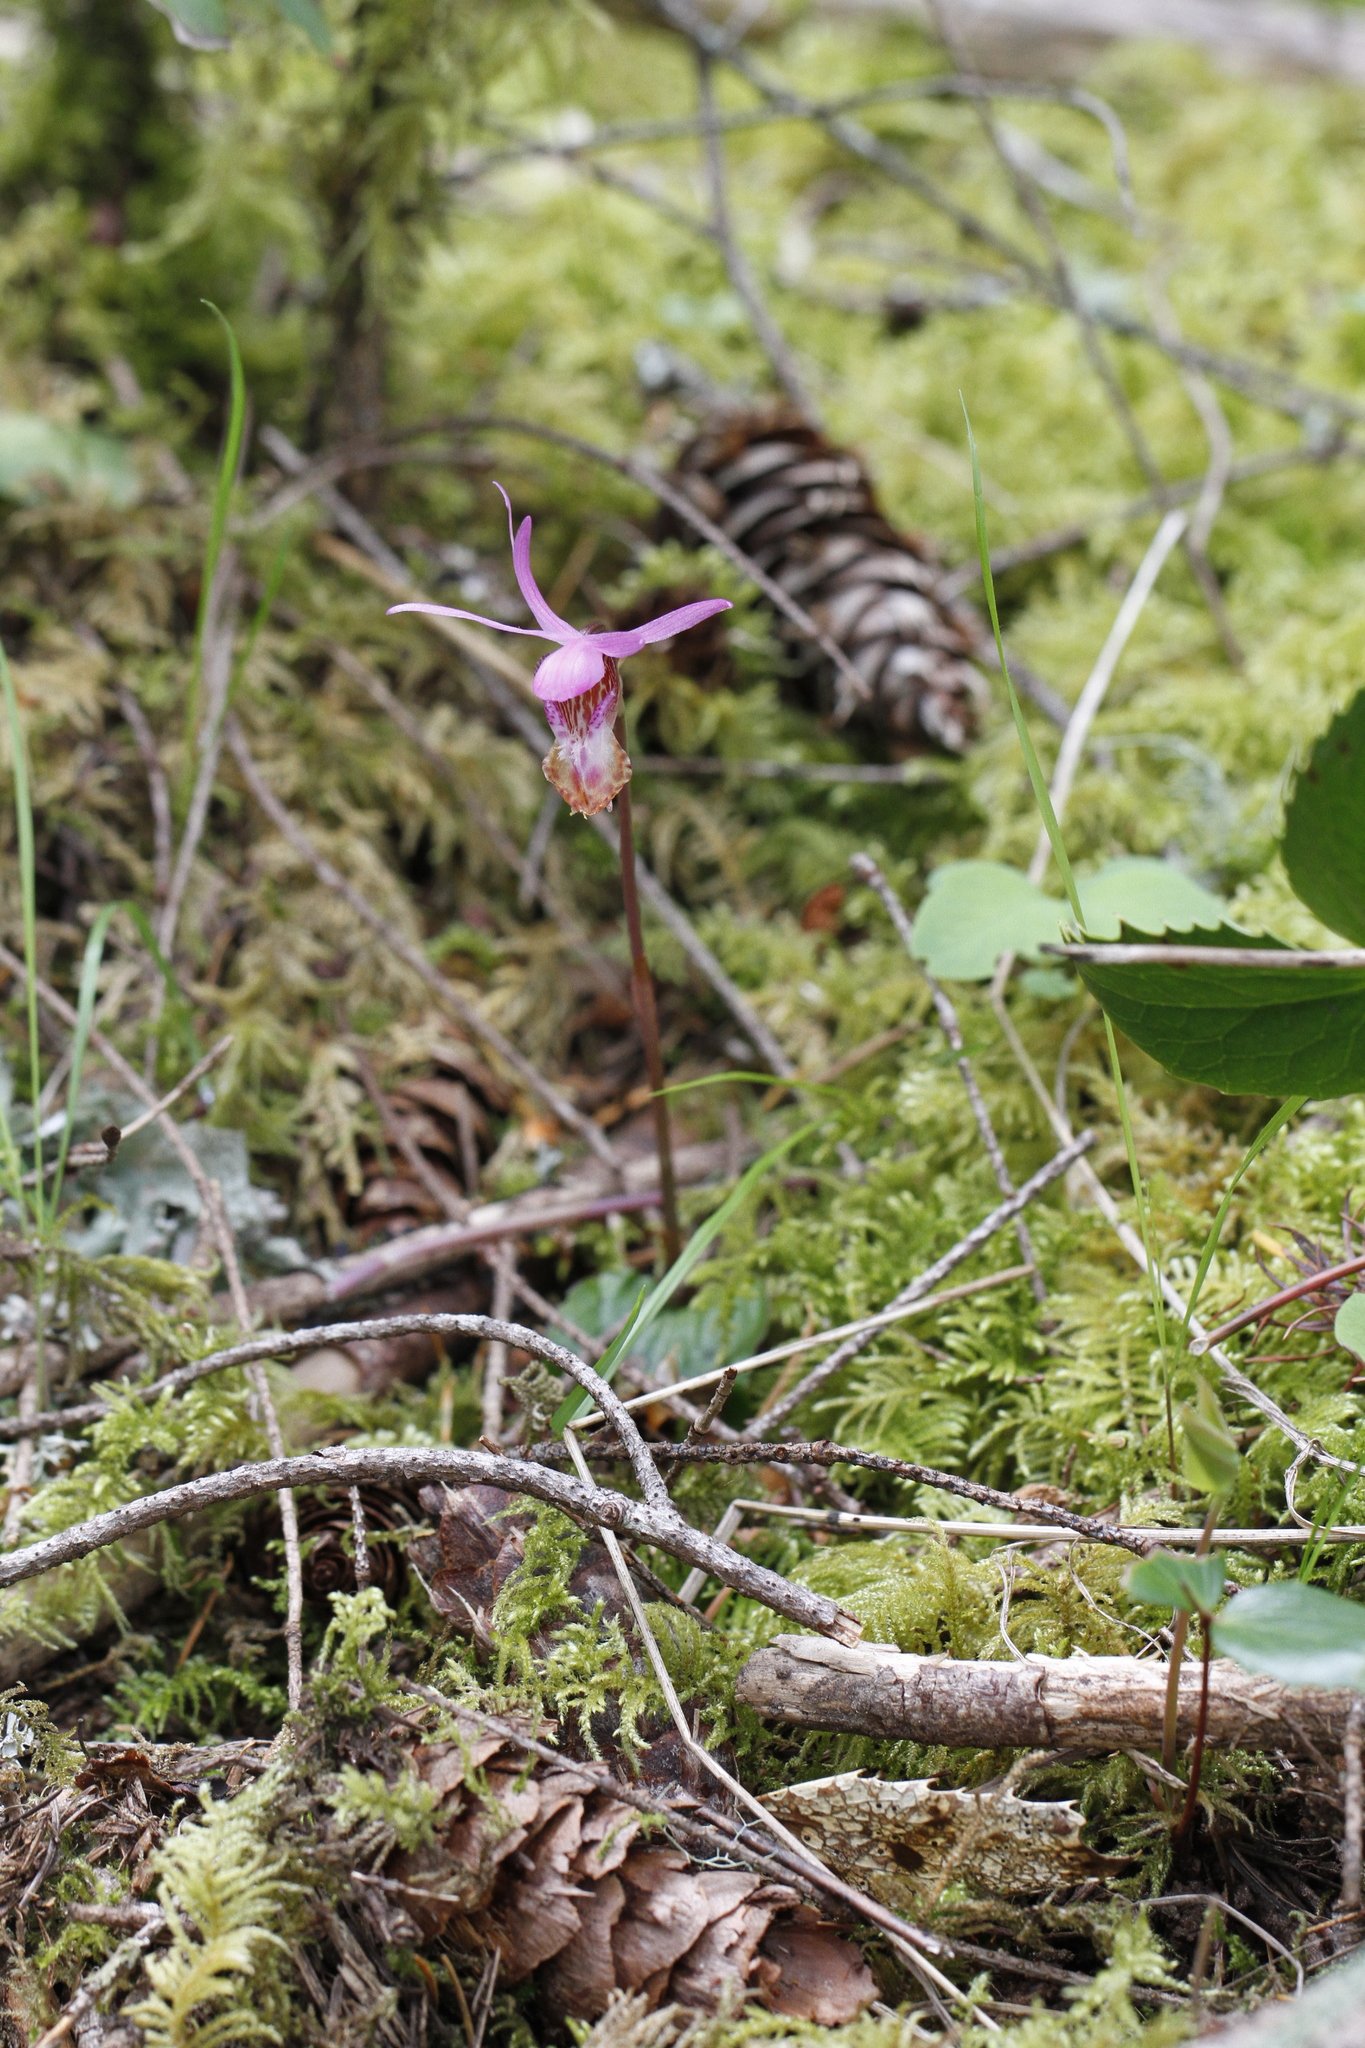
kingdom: Plantae
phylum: Tracheophyta
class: Liliopsida
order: Asparagales
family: Orchidaceae
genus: Calypso
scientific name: Calypso bulbosa
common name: Calypso
